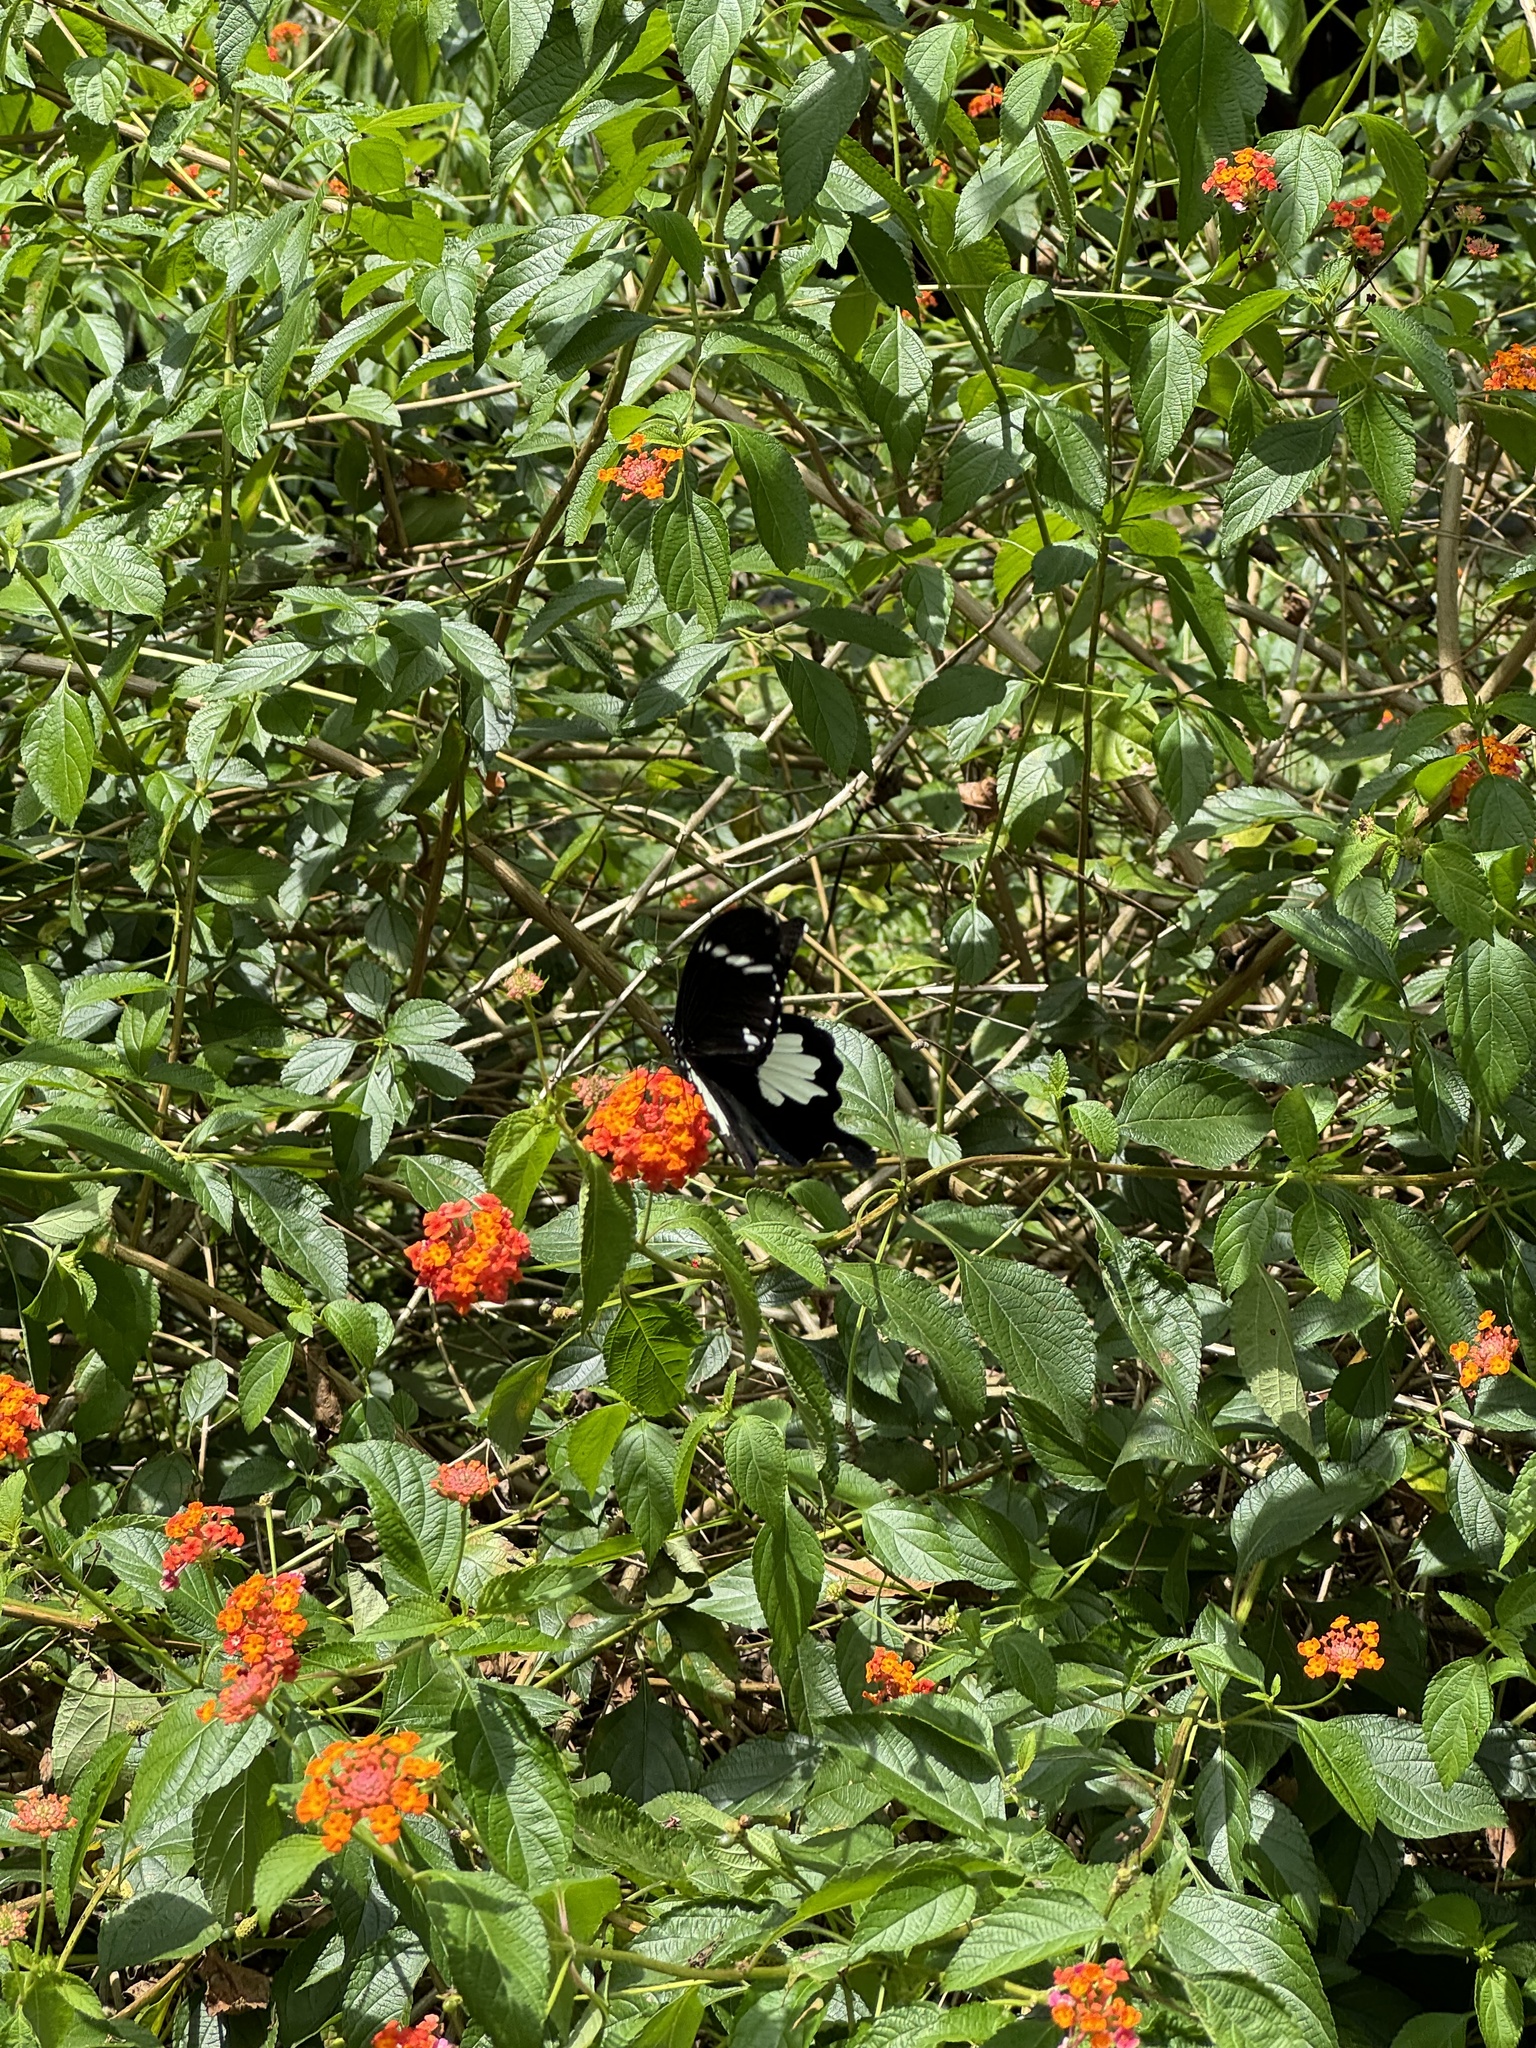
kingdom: Animalia
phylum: Arthropoda
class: Insecta
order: Lepidoptera
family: Papilionidae
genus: Papilio
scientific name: Papilio nephelus
